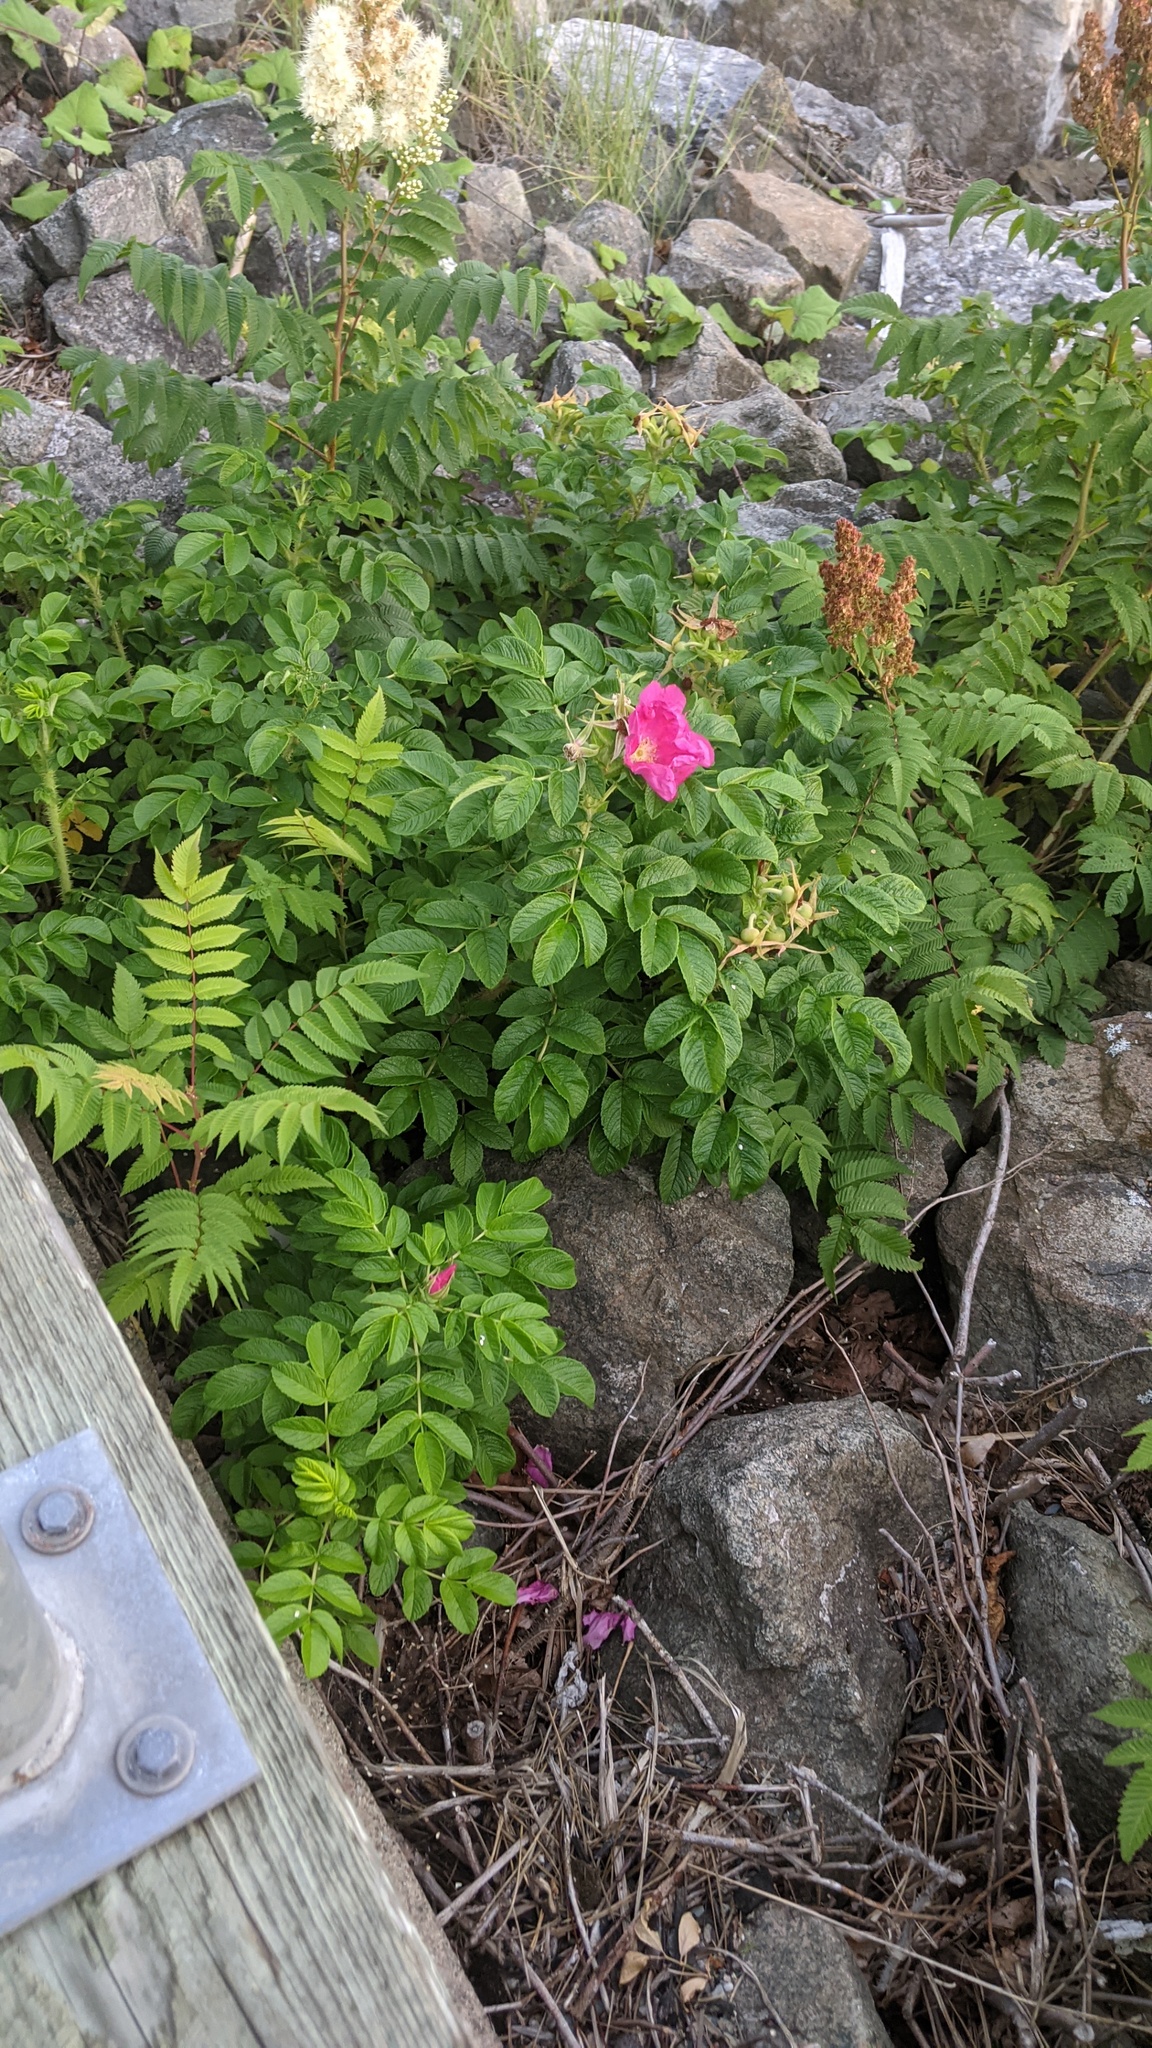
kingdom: Plantae
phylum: Tracheophyta
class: Magnoliopsida
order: Rosales
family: Rosaceae
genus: Rosa
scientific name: Rosa rugosa
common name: Japanese rose
